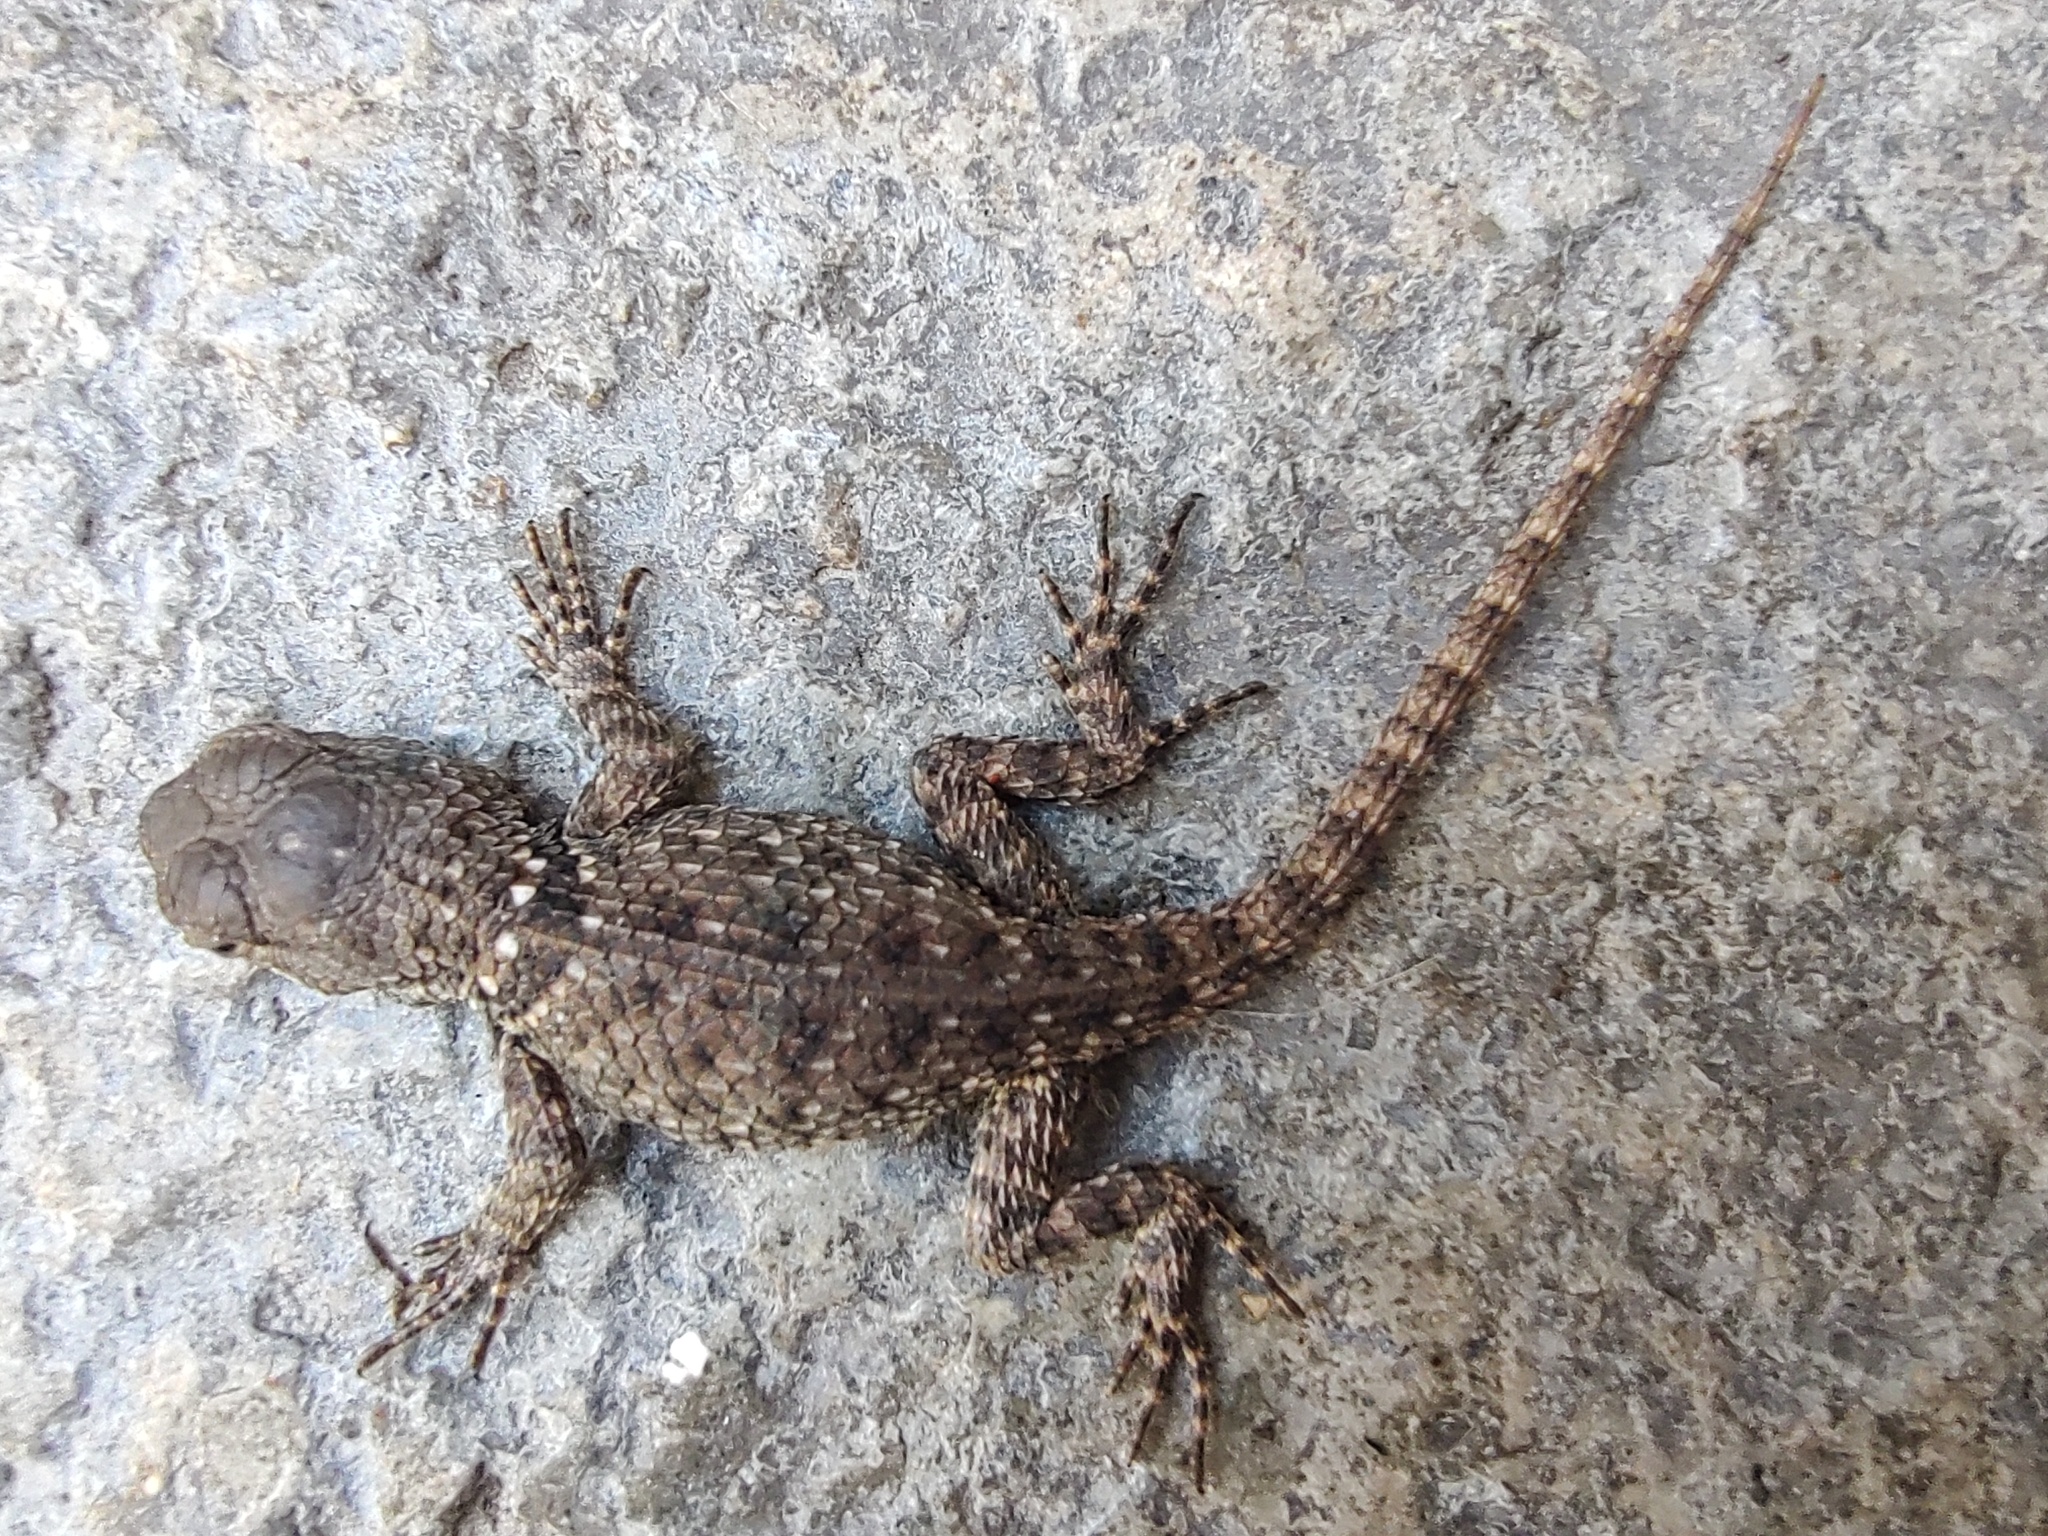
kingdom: Animalia
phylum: Chordata
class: Squamata
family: Phrynosomatidae
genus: Sceloporus
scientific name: Sceloporus torquatus
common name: Central plateau torquate lizard [melanogaster]
